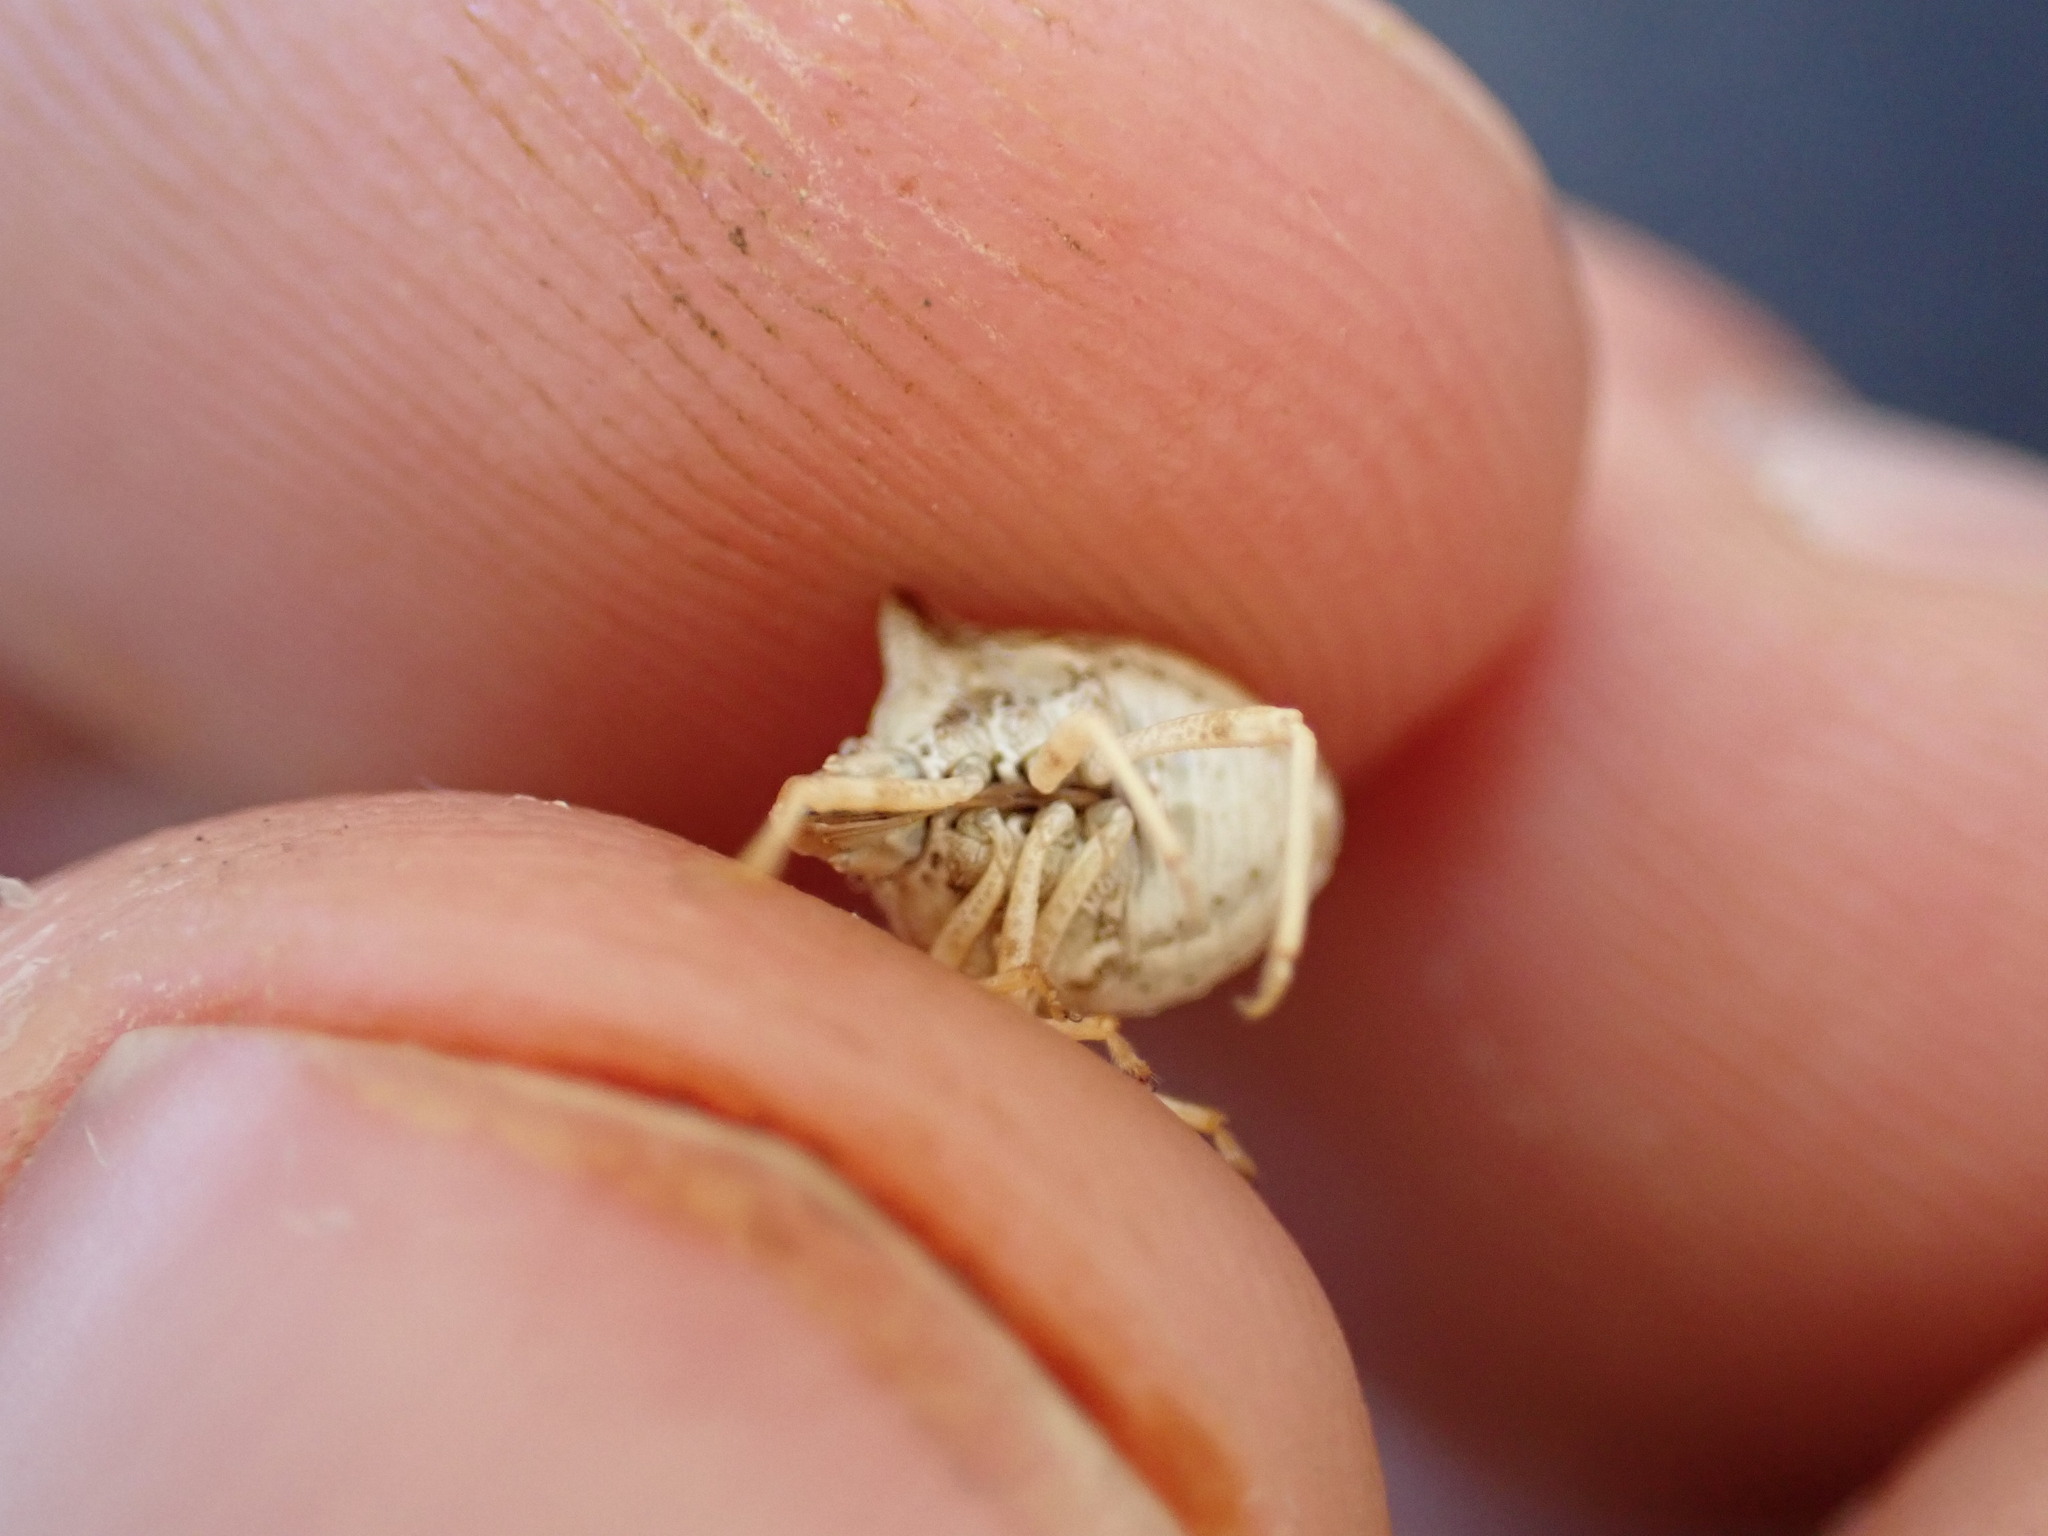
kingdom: Animalia
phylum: Arthropoda
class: Insecta
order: Hemiptera
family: Pentatomidae
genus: Ancyrosoma
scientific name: Ancyrosoma leucogrammes
